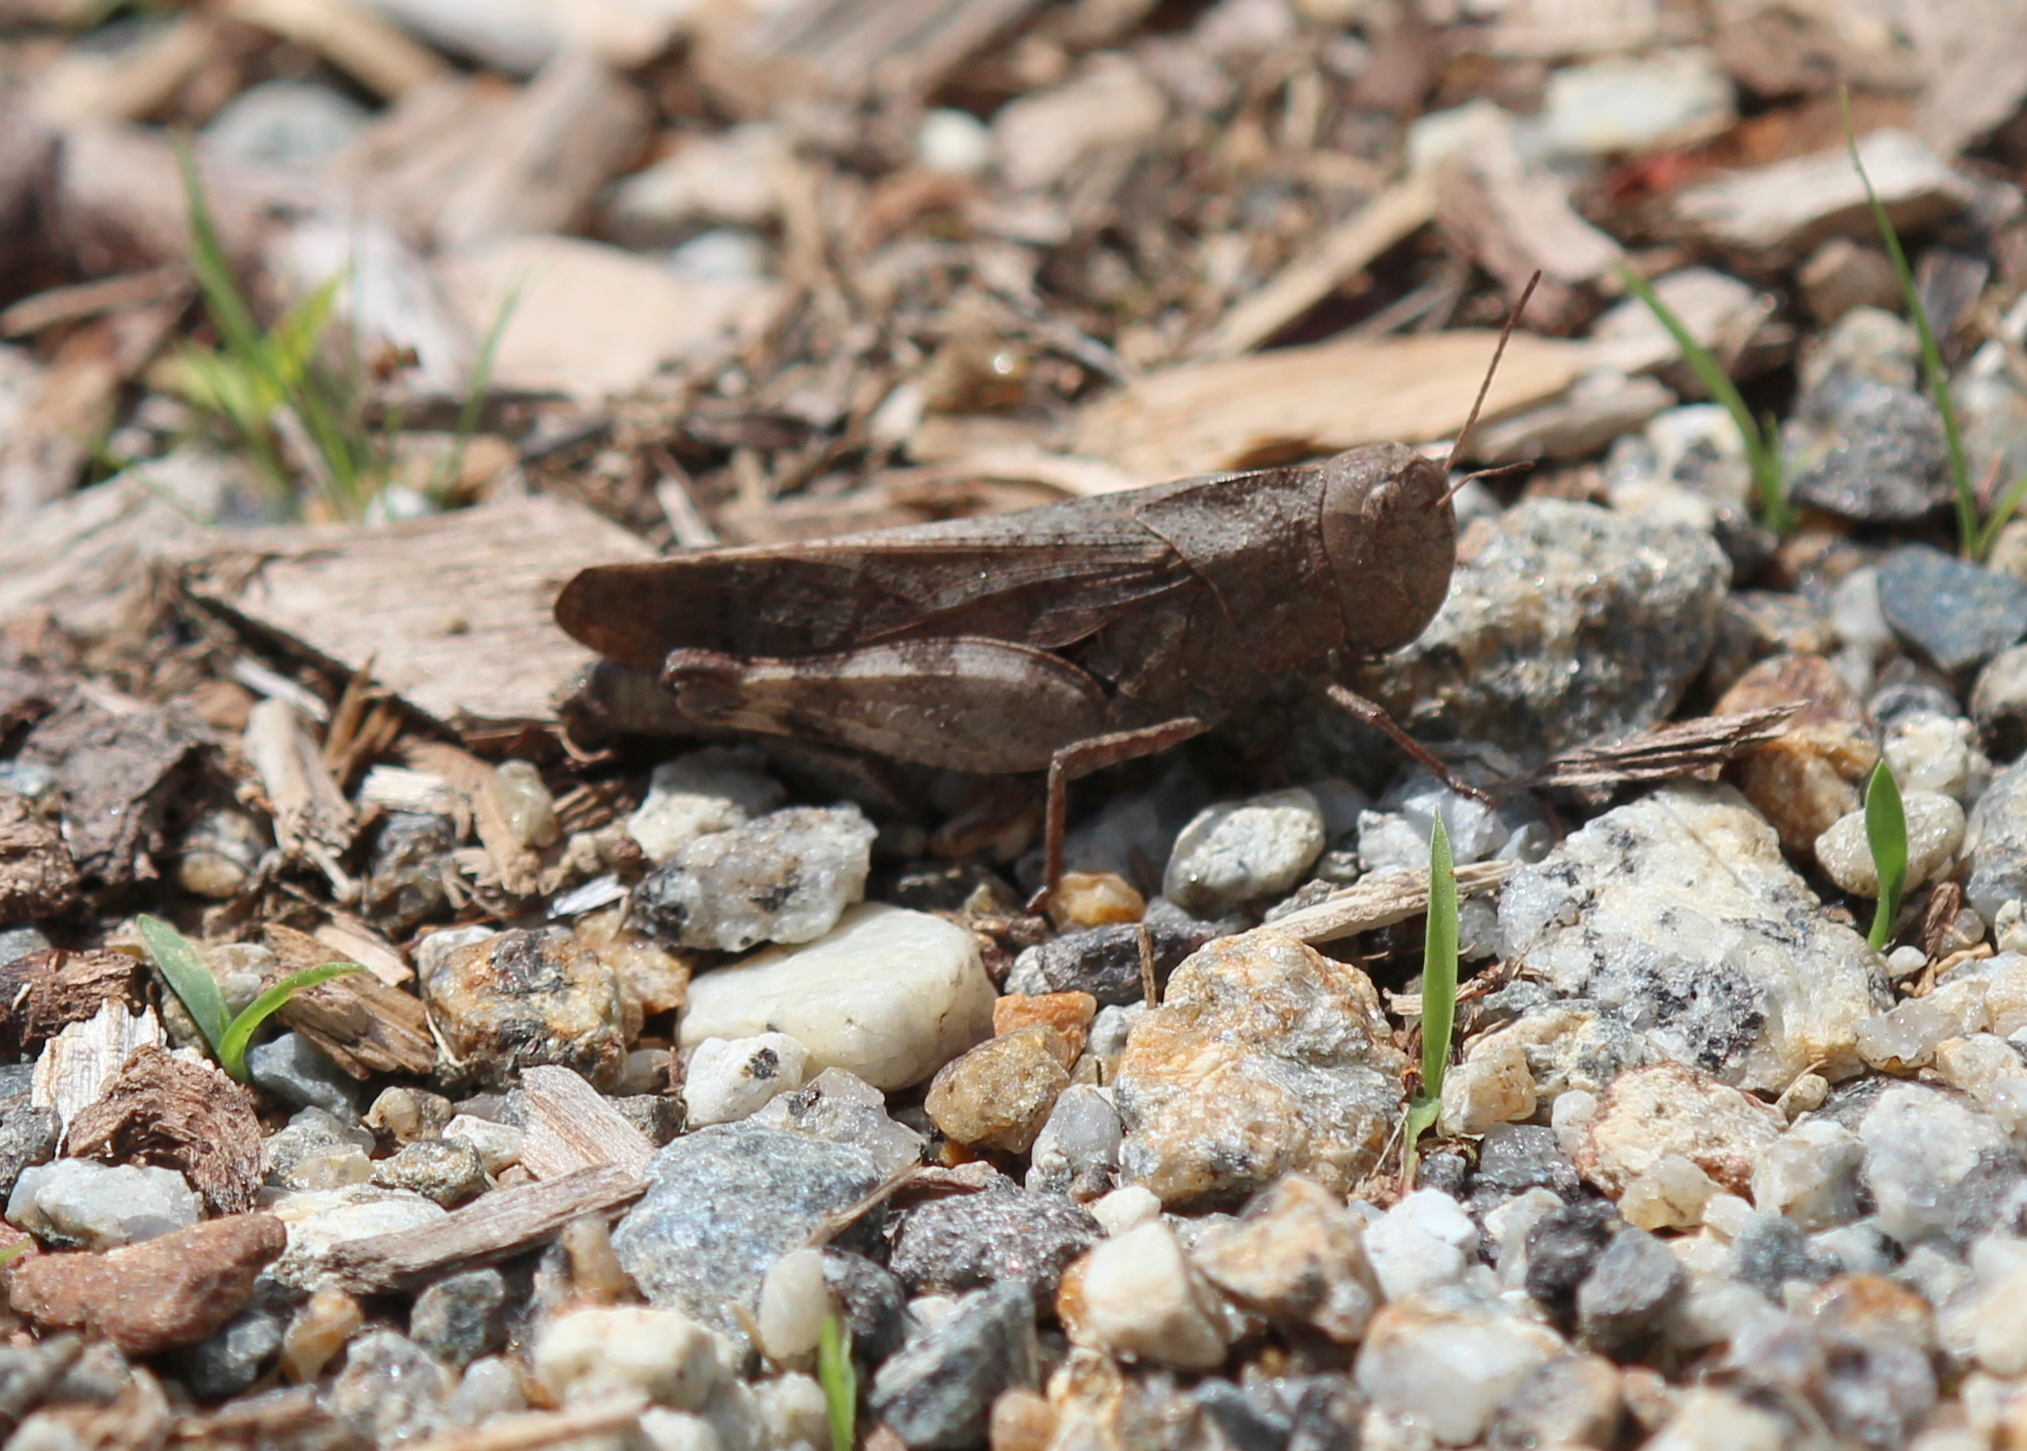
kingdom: Animalia
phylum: Arthropoda
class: Insecta
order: Orthoptera
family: Acrididae
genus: Arphia
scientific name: Arphia sulphurea
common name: Spring yellow-winged locust
